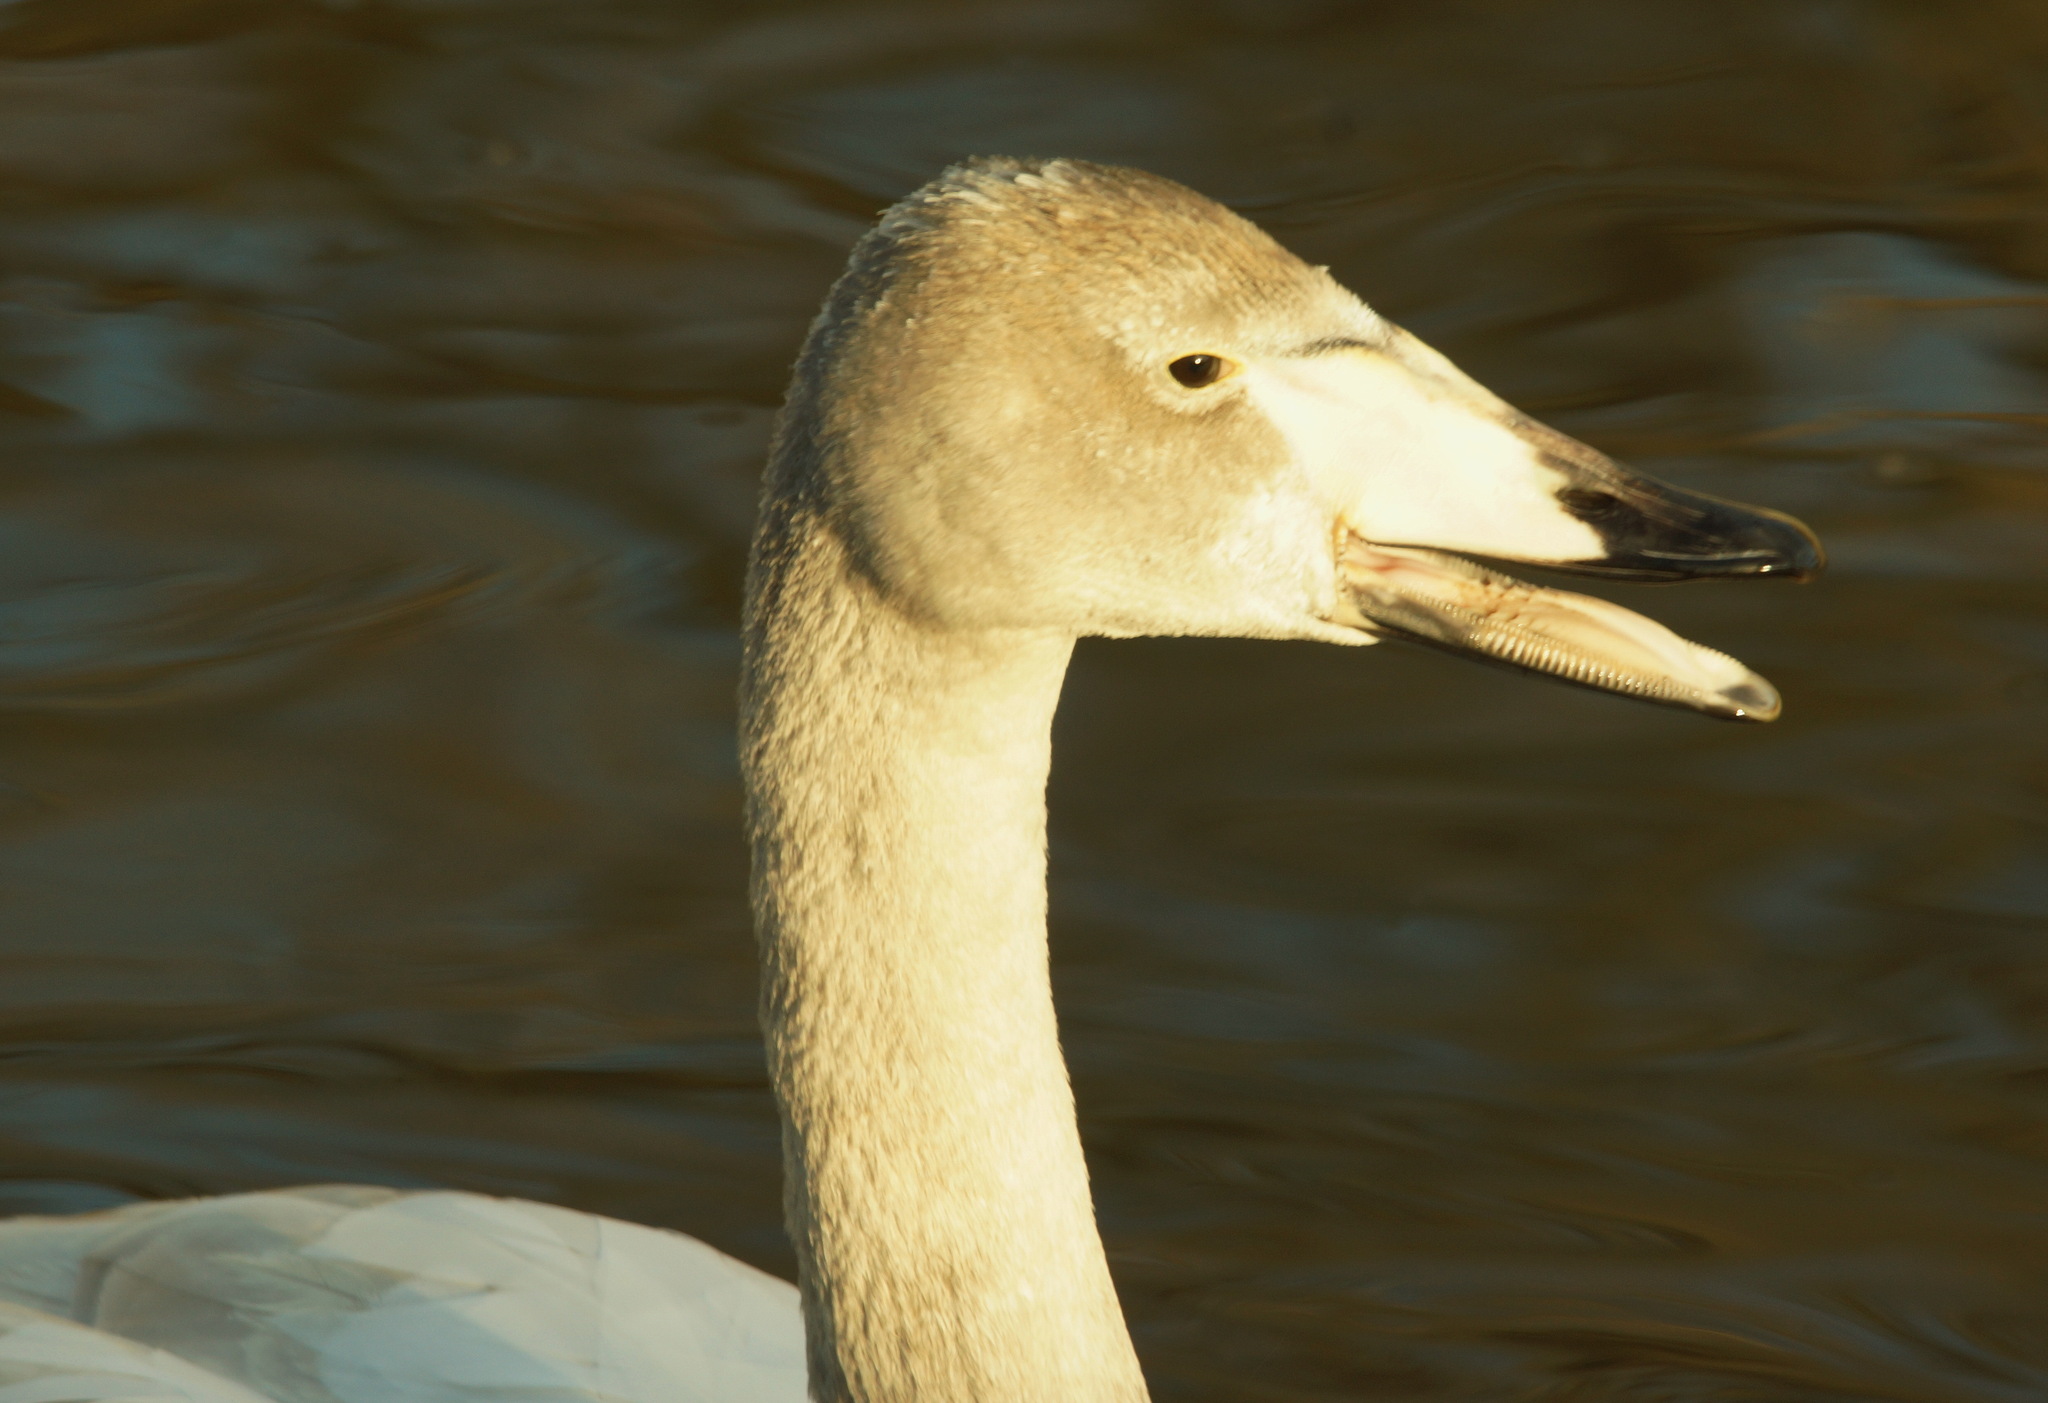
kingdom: Animalia
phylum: Chordata
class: Aves
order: Anseriformes
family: Anatidae
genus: Cygnus
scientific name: Cygnus cygnus
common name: Whooper swan
